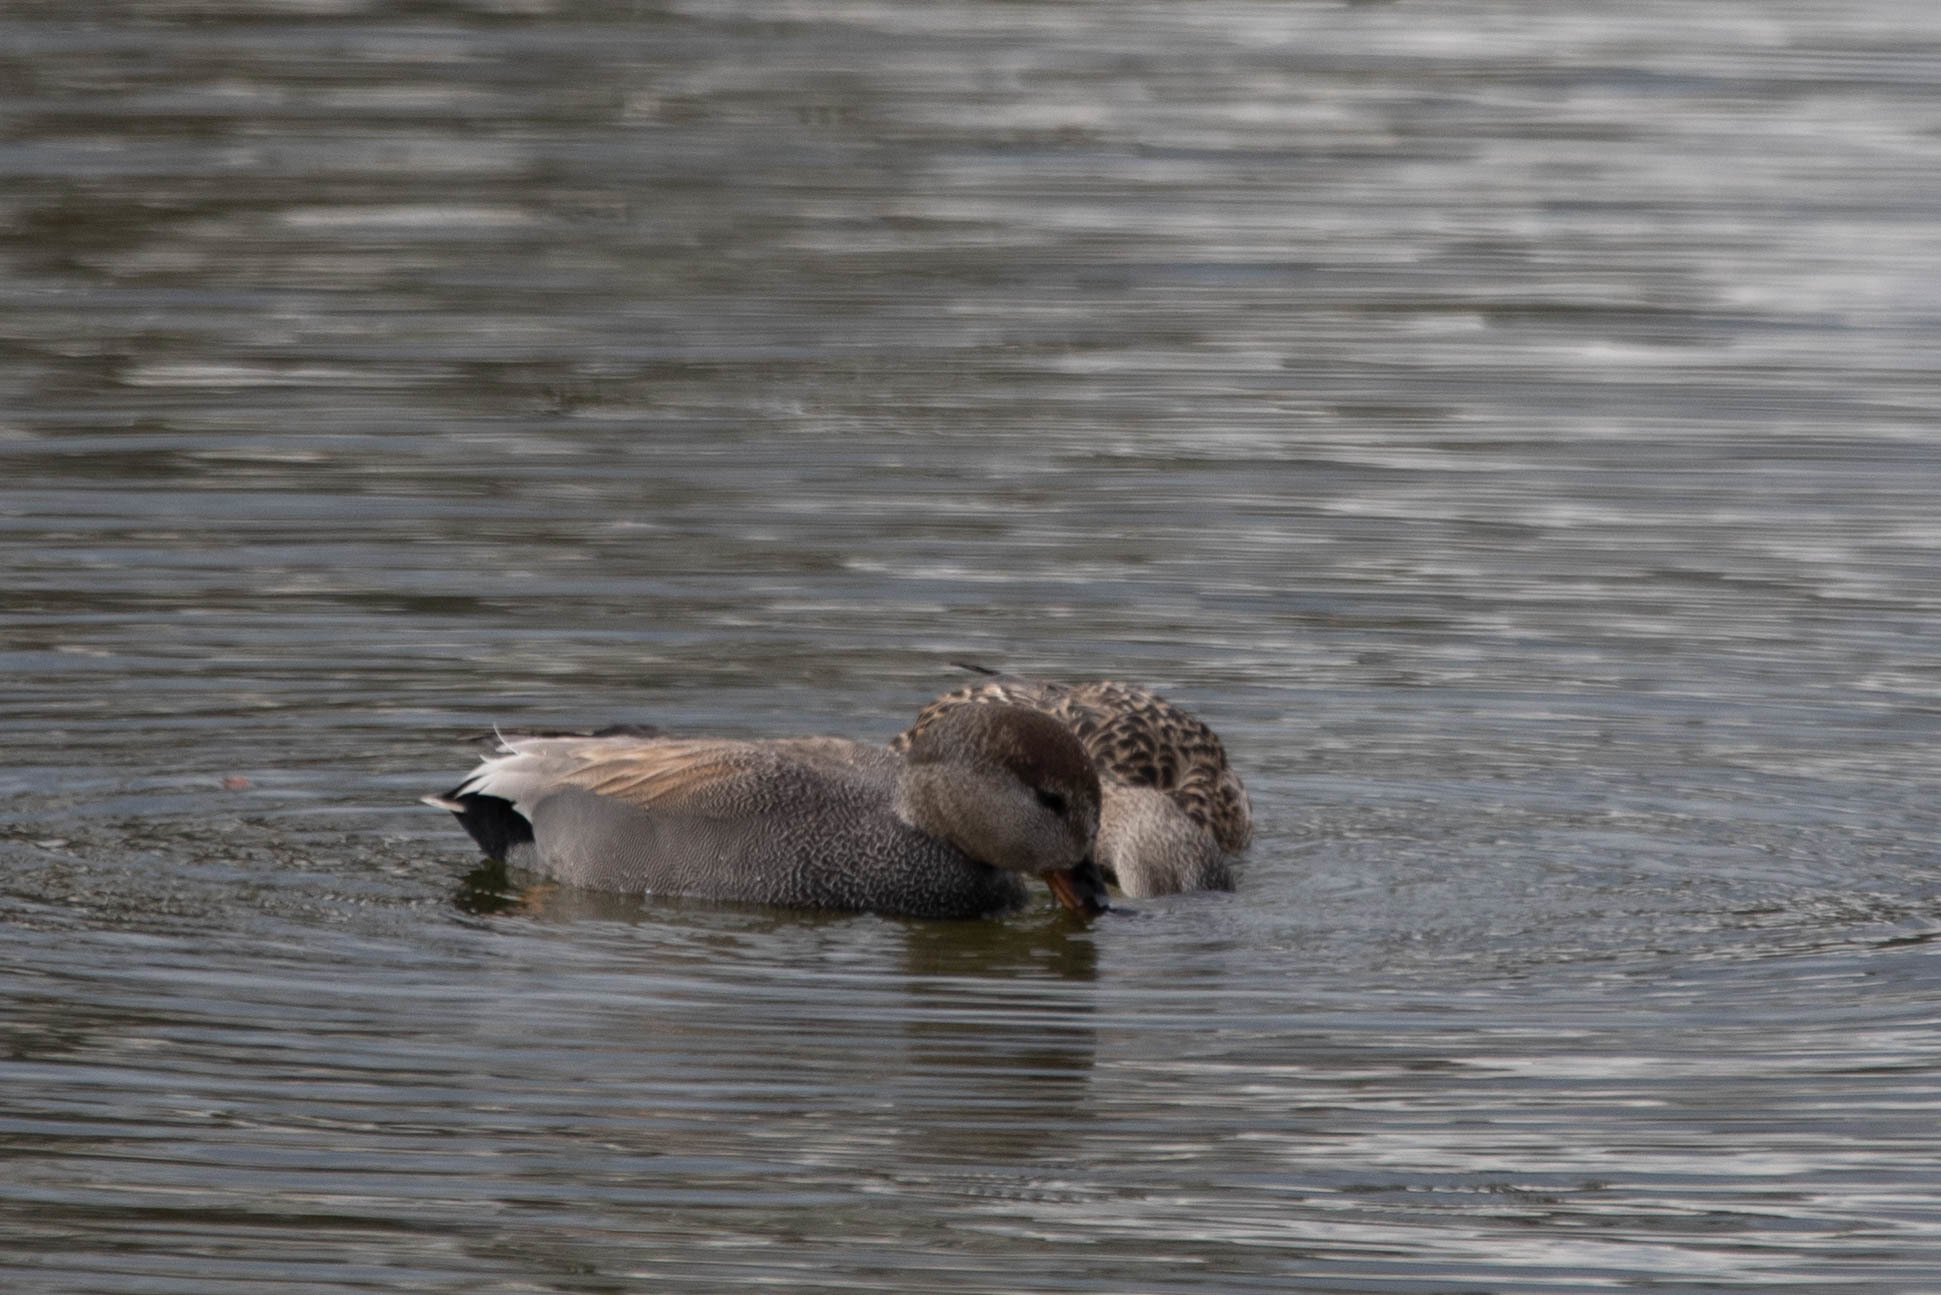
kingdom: Animalia
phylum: Chordata
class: Aves
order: Anseriformes
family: Anatidae
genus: Mareca
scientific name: Mareca strepera
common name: Gadwall
